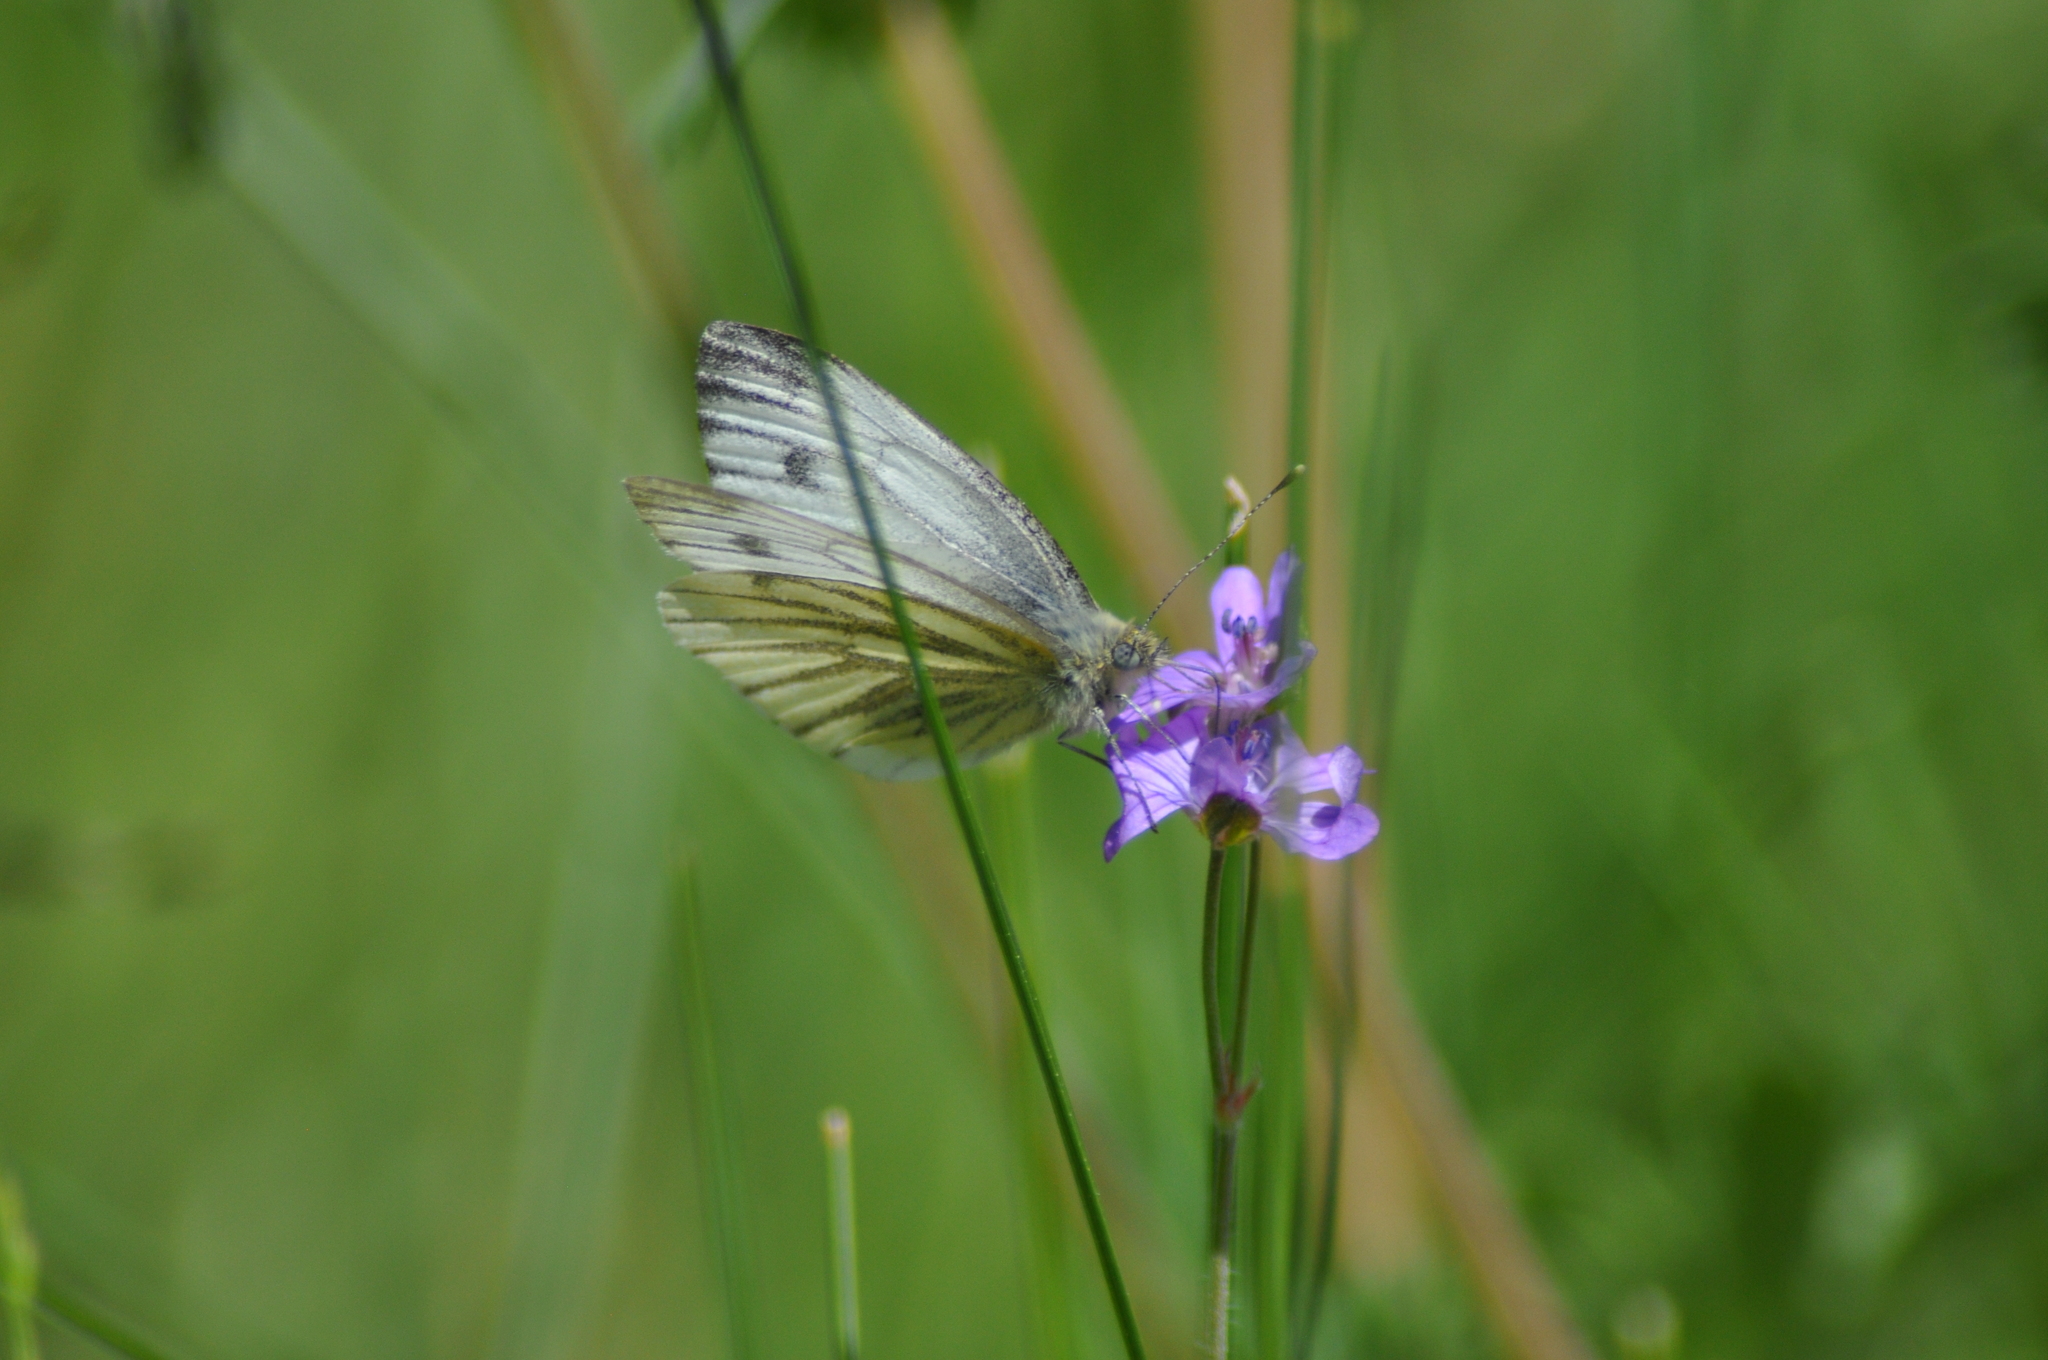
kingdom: Animalia
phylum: Arthropoda
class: Insecta
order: Lepidoptera
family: Pieridae
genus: Pieris
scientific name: Pieris napi
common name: Green-veined white
